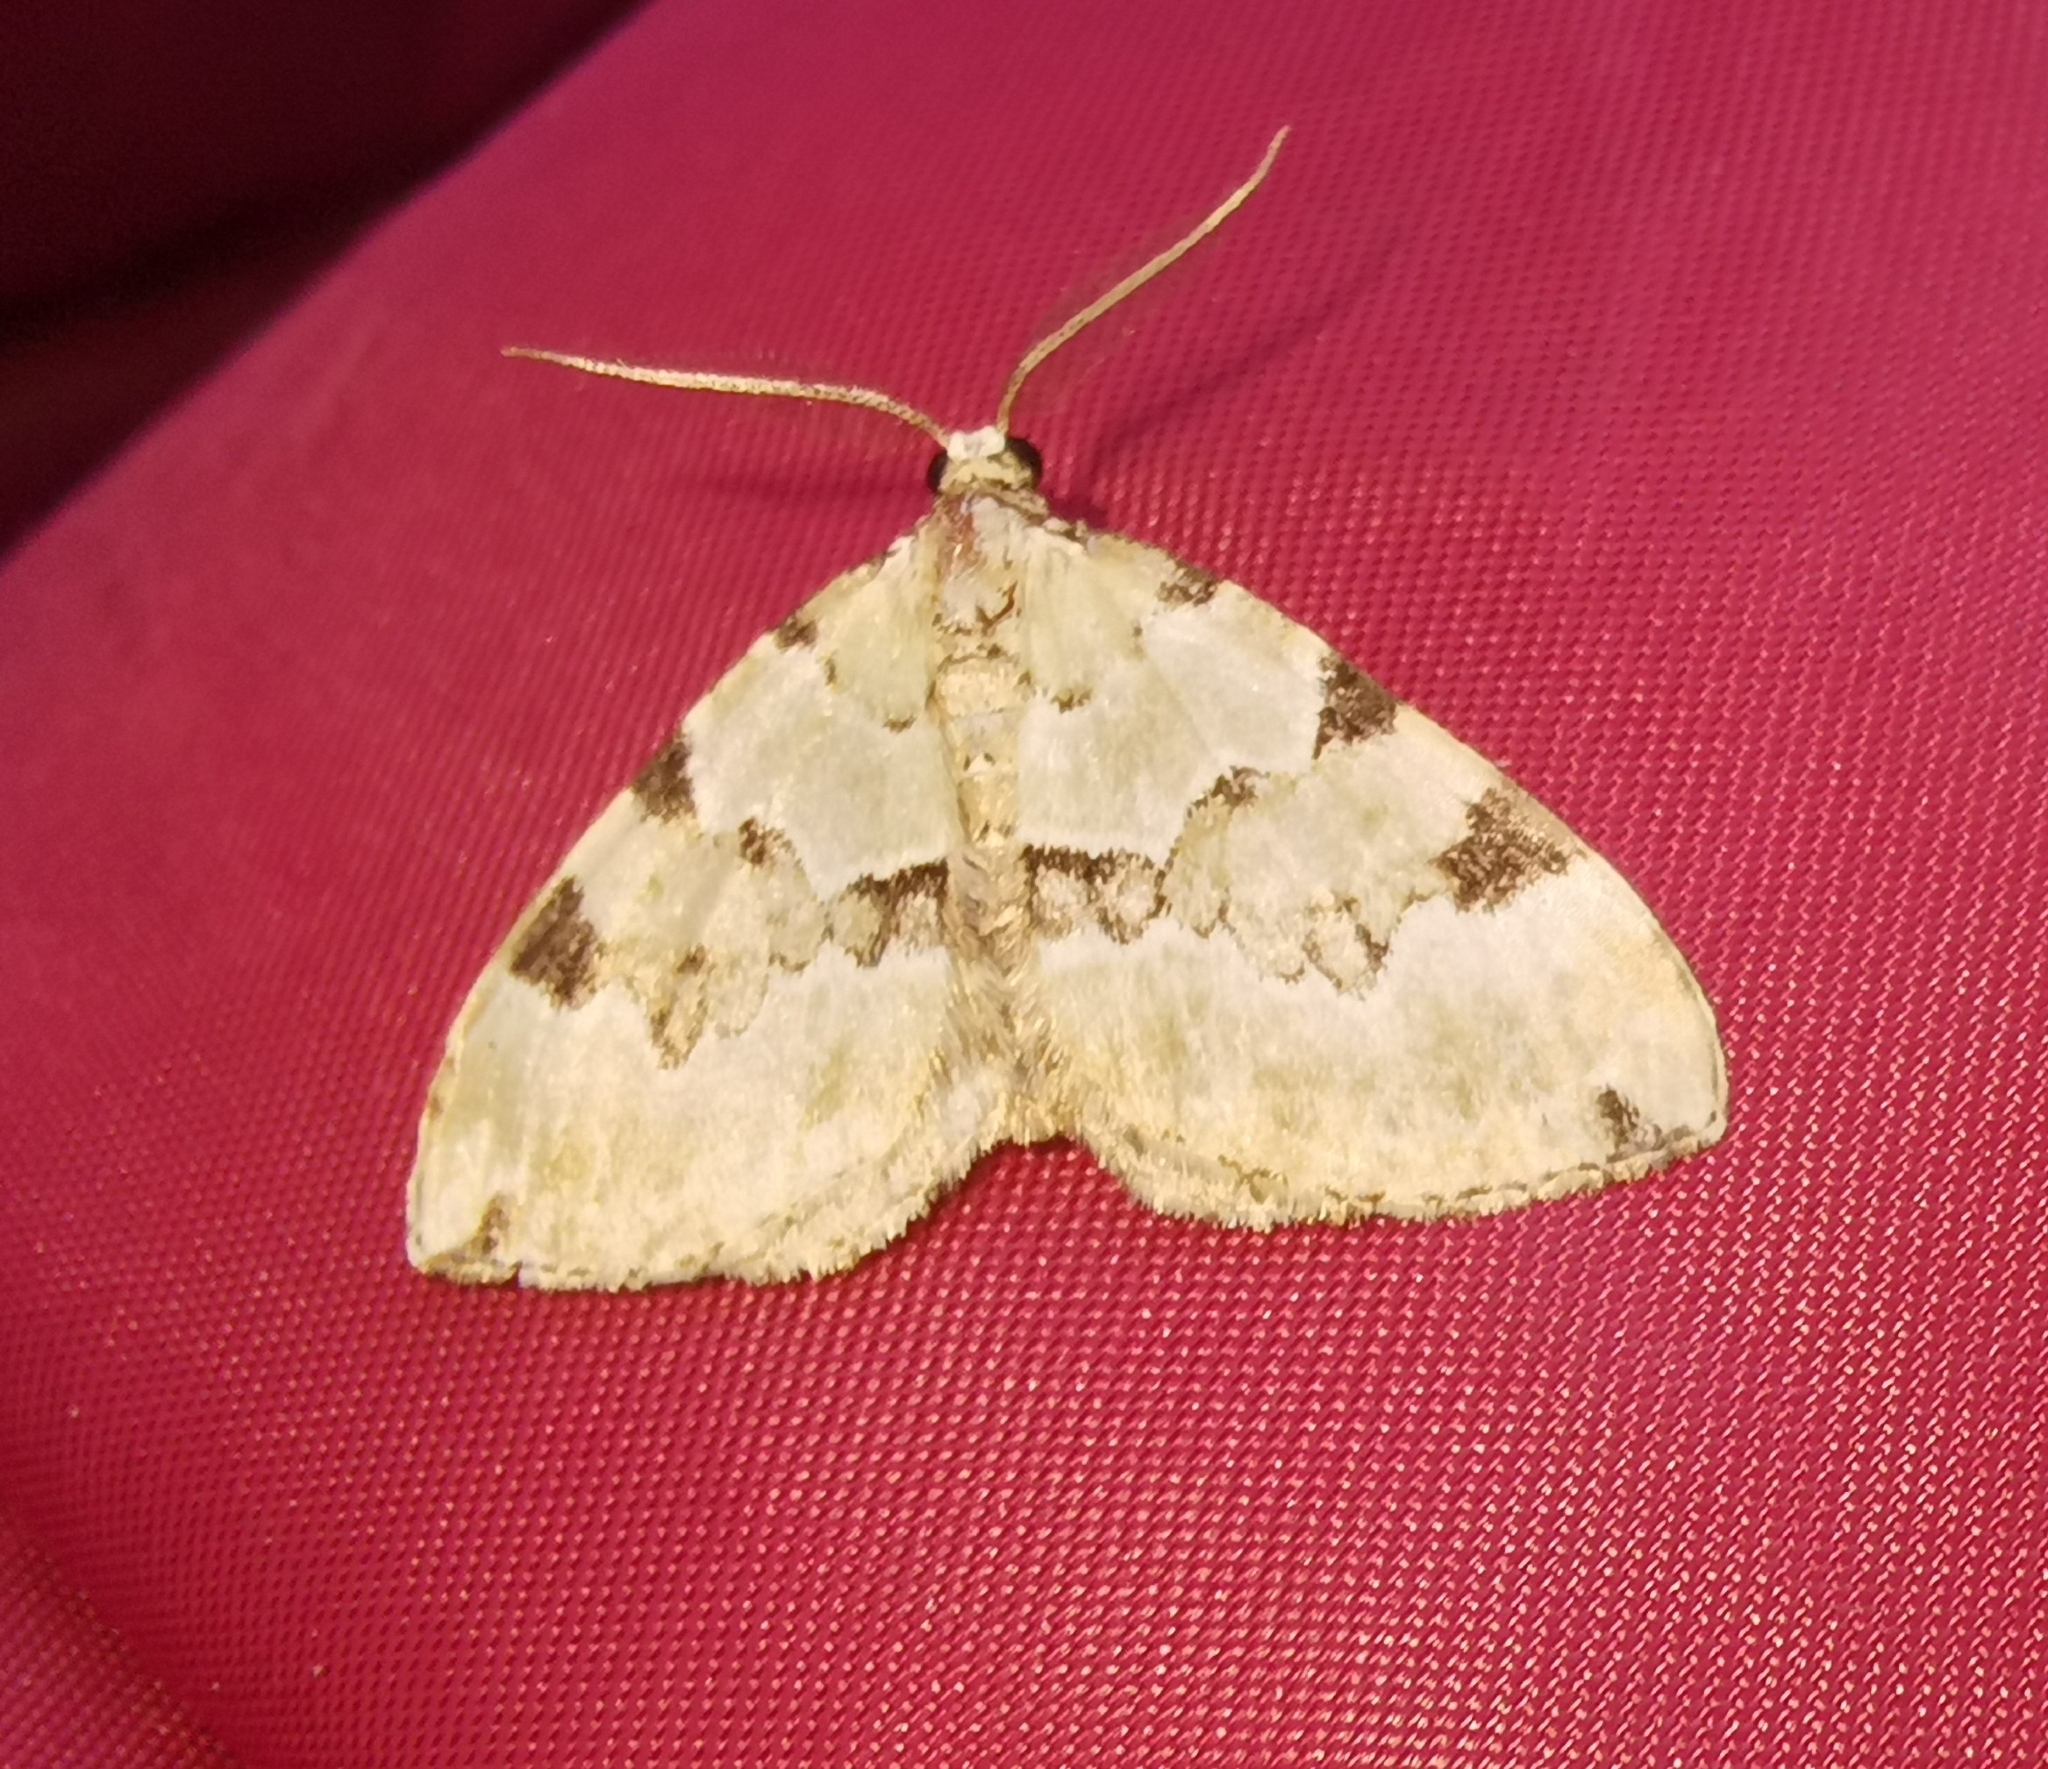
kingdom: Animalia
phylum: Arthropoda
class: Insecta
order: Lepidoptera
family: Geometridae
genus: Colostygia
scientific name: Colostygia pectinataria
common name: Green carpet
